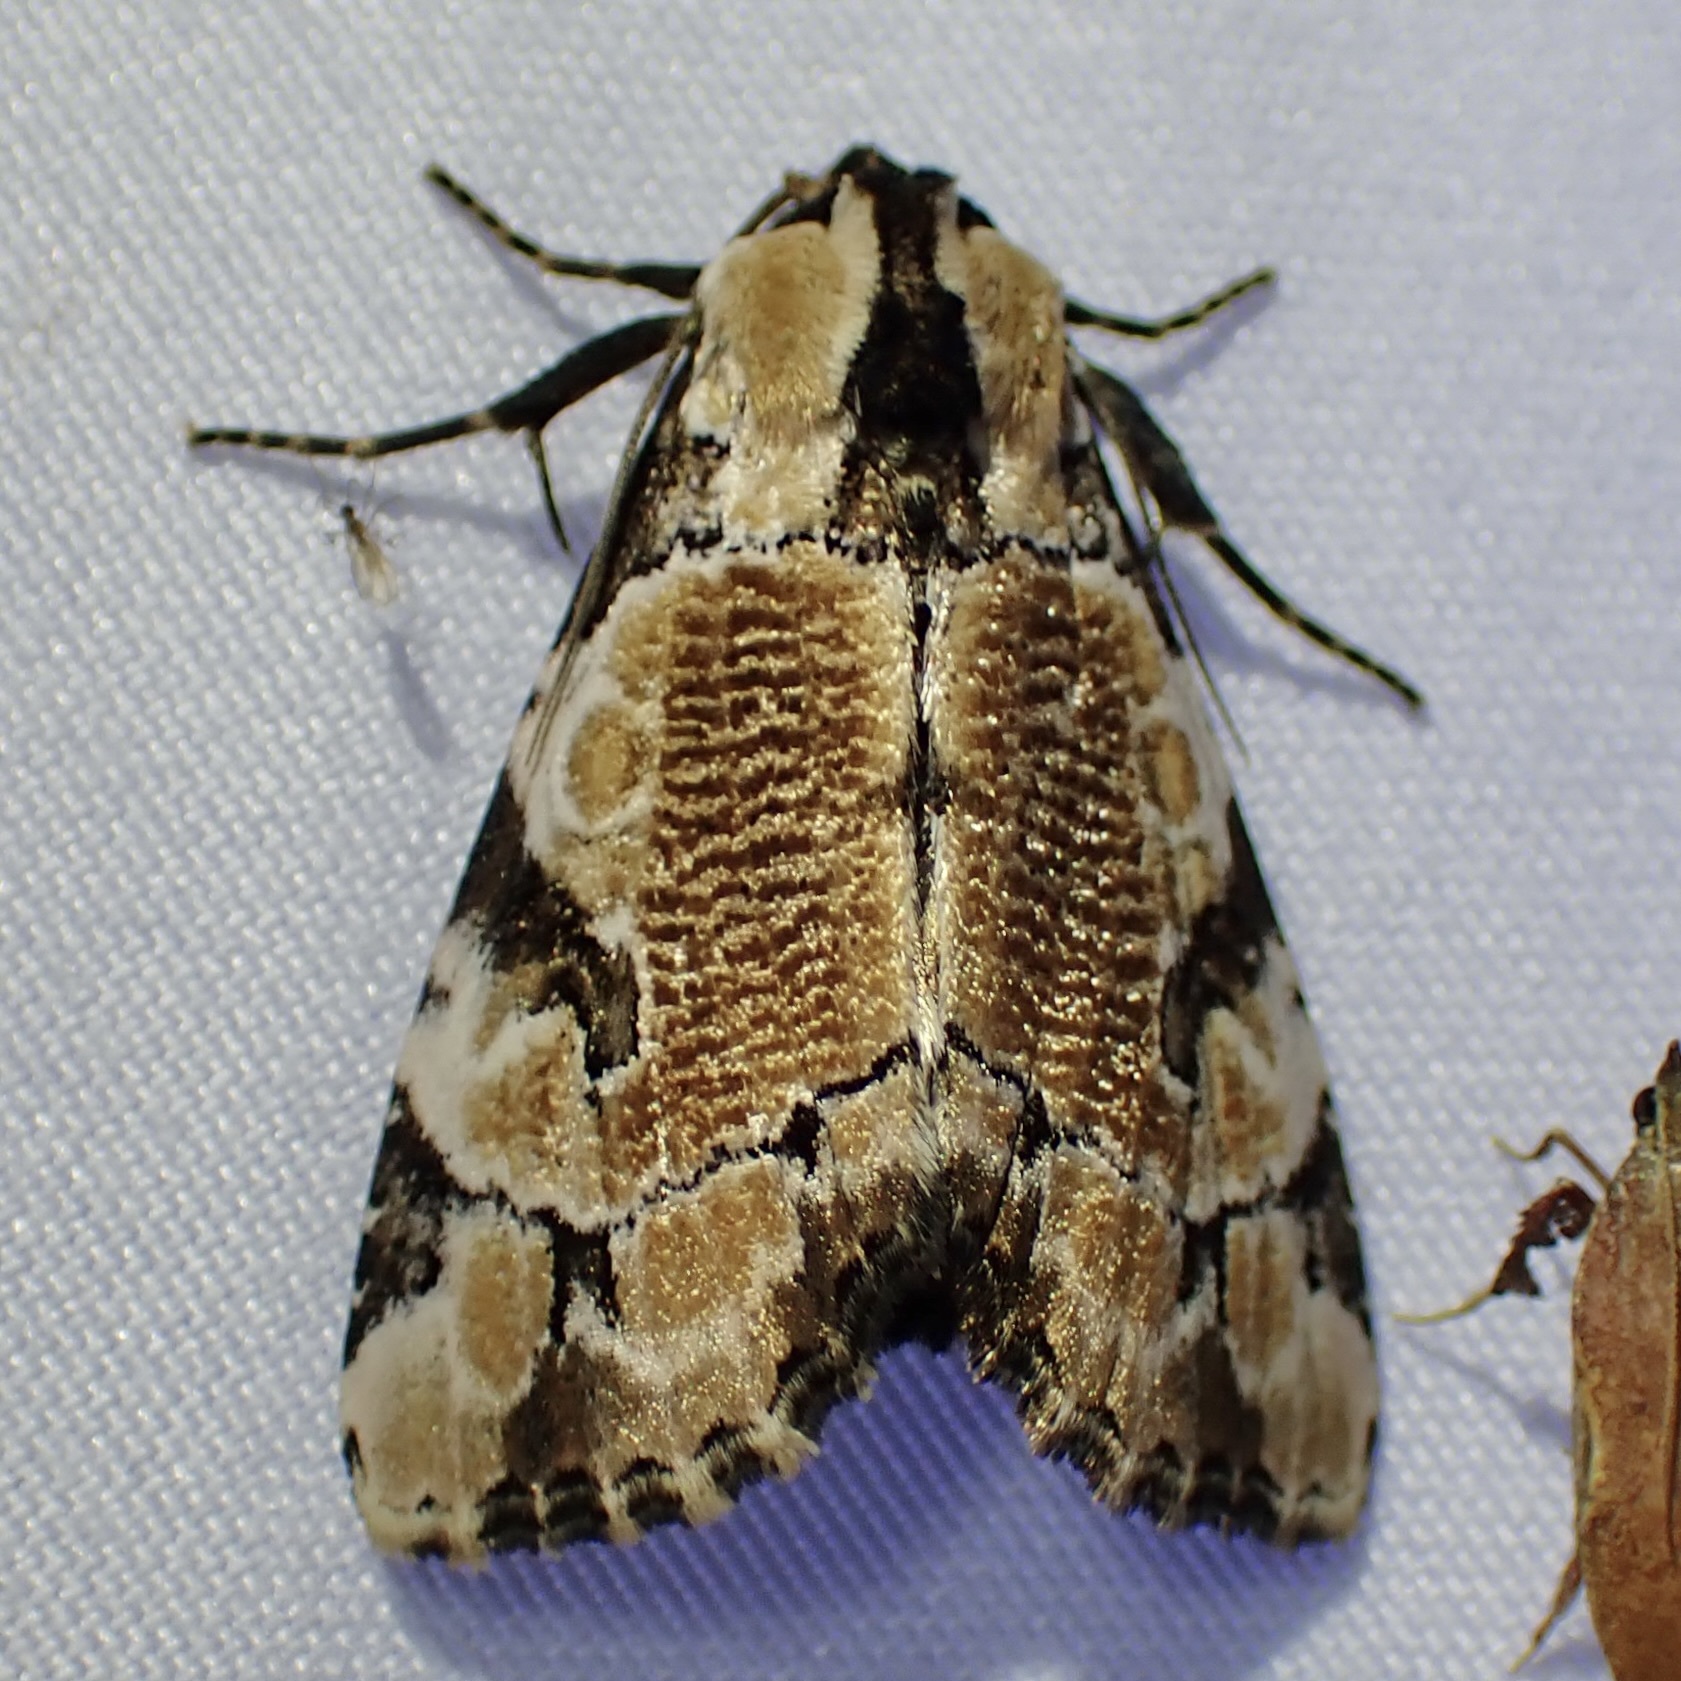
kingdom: Animalia
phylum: Arthropoda
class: Insecta
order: Lepidoptera
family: Noctuidae
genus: Stibaera
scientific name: Stibaera thyatiroides
